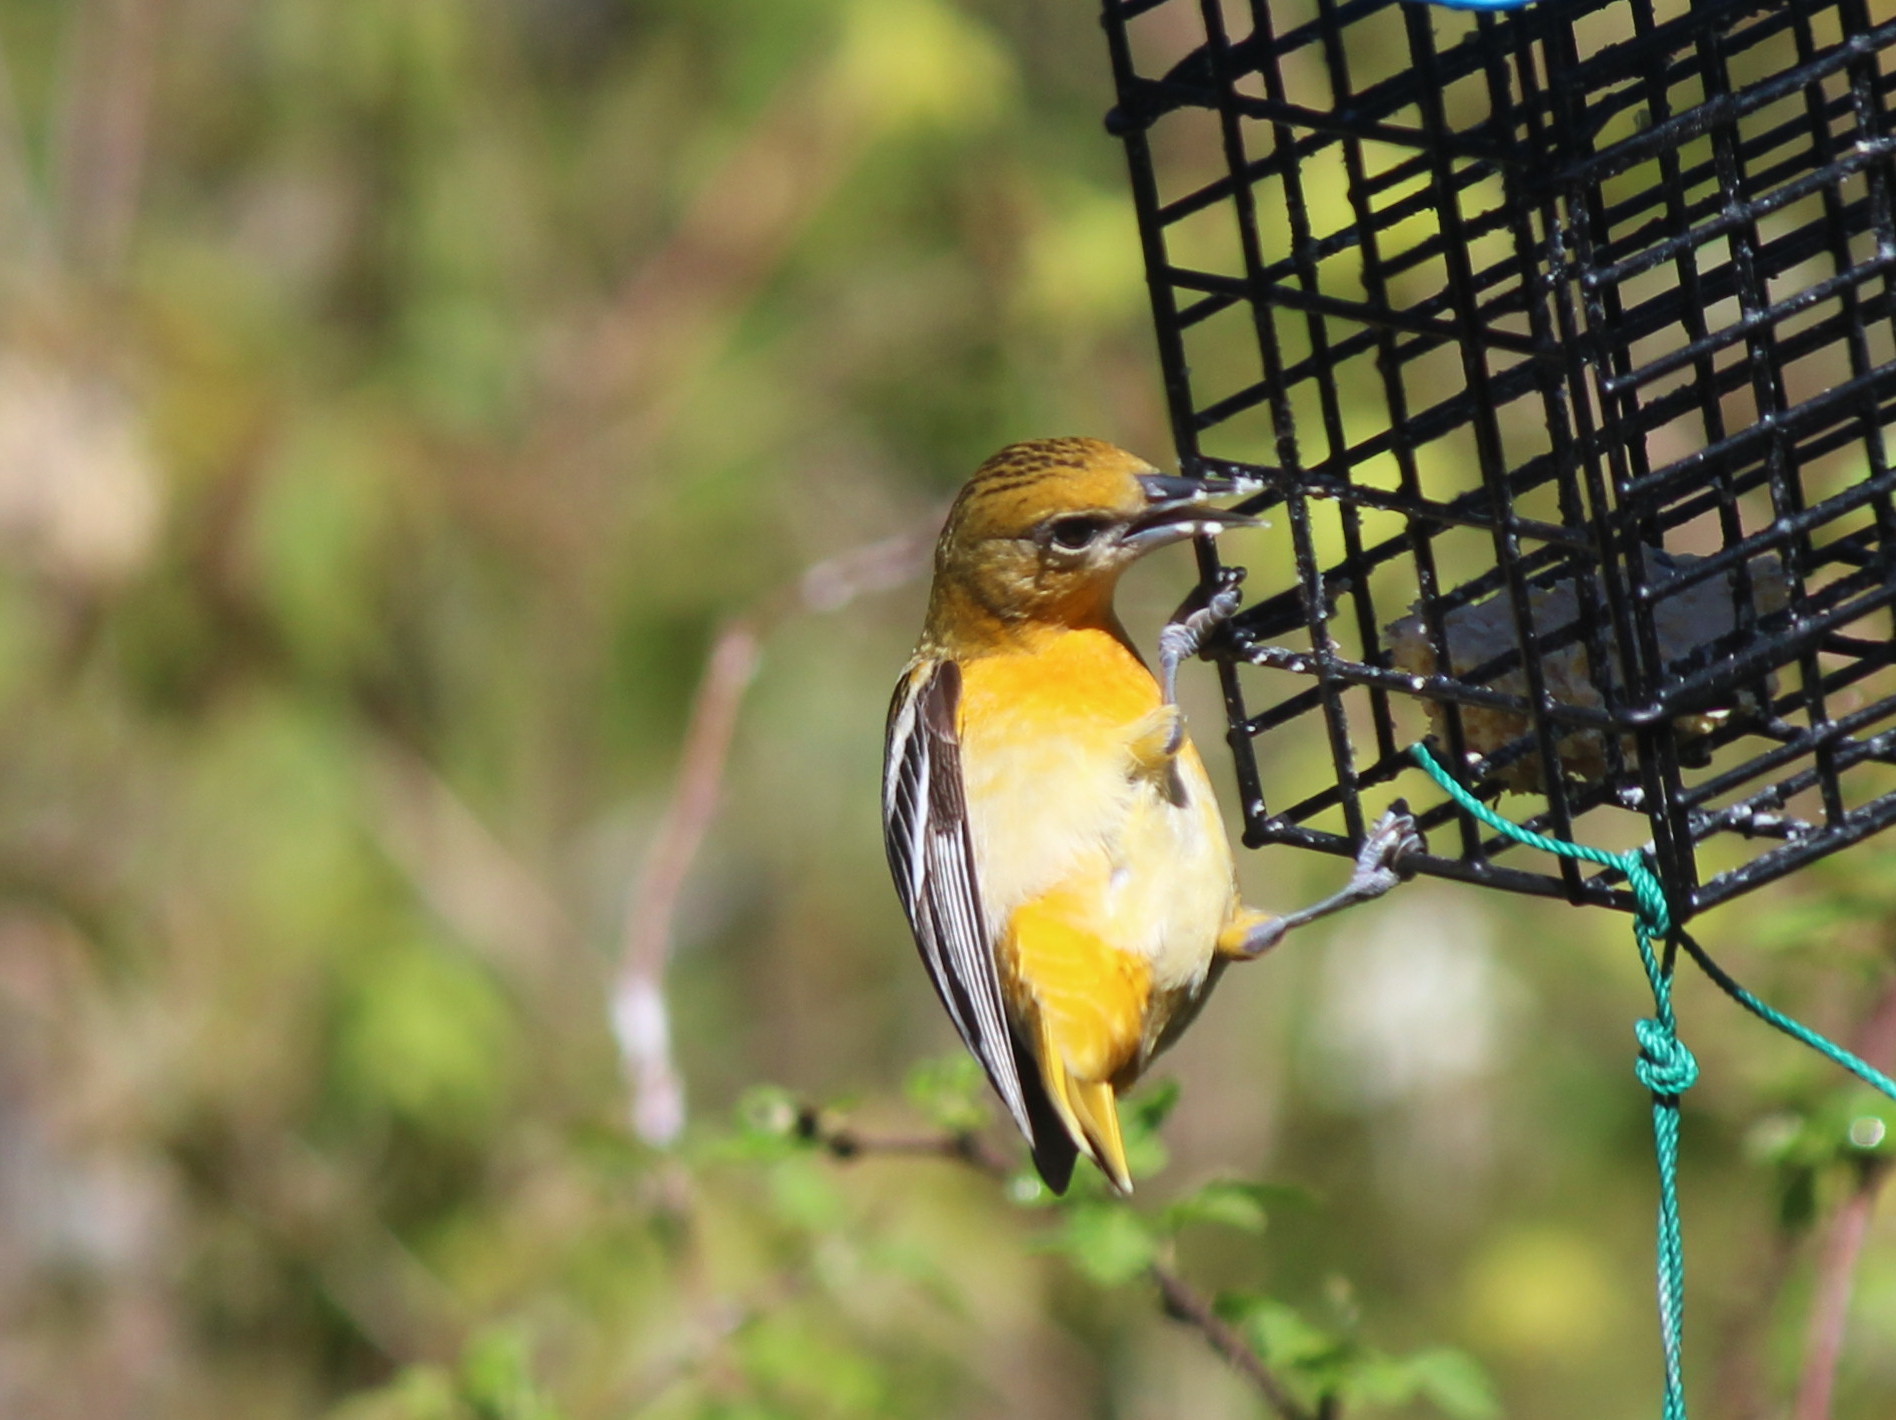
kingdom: Animalia
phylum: Chordata
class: Aves
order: Passeriformes
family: Icteridae
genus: Icterus
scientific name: Icterus galbula
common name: Baltimore oriole
